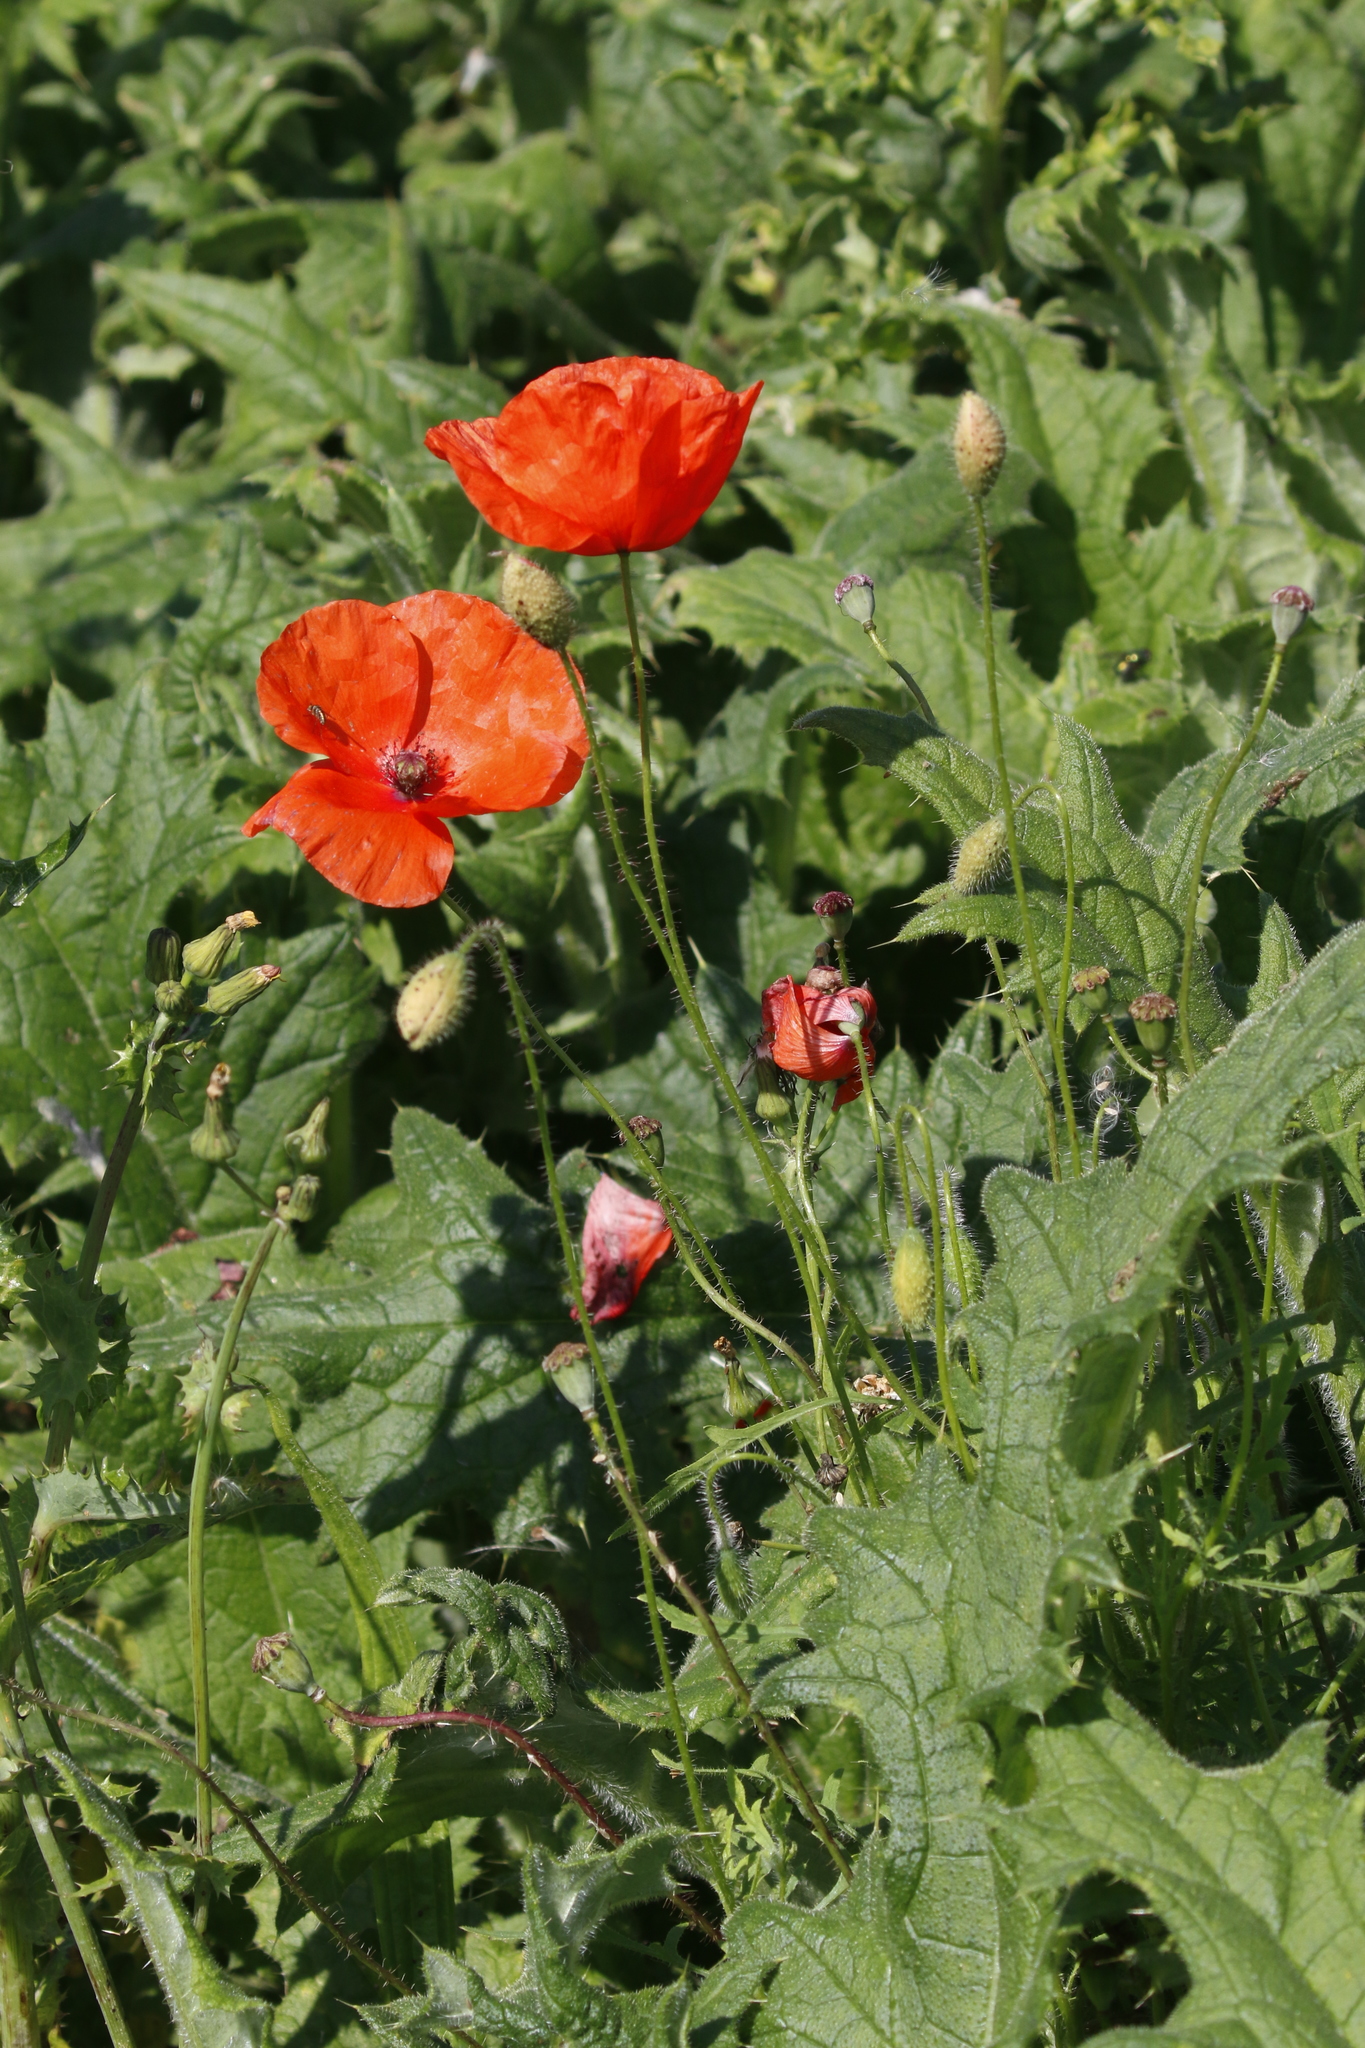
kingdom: Plantae
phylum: Tracheophyta
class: Magnoliopsida
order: Ranunculales
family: Papaveraceae
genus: Papaver
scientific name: Papaver rhoeas
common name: Corn poppy
